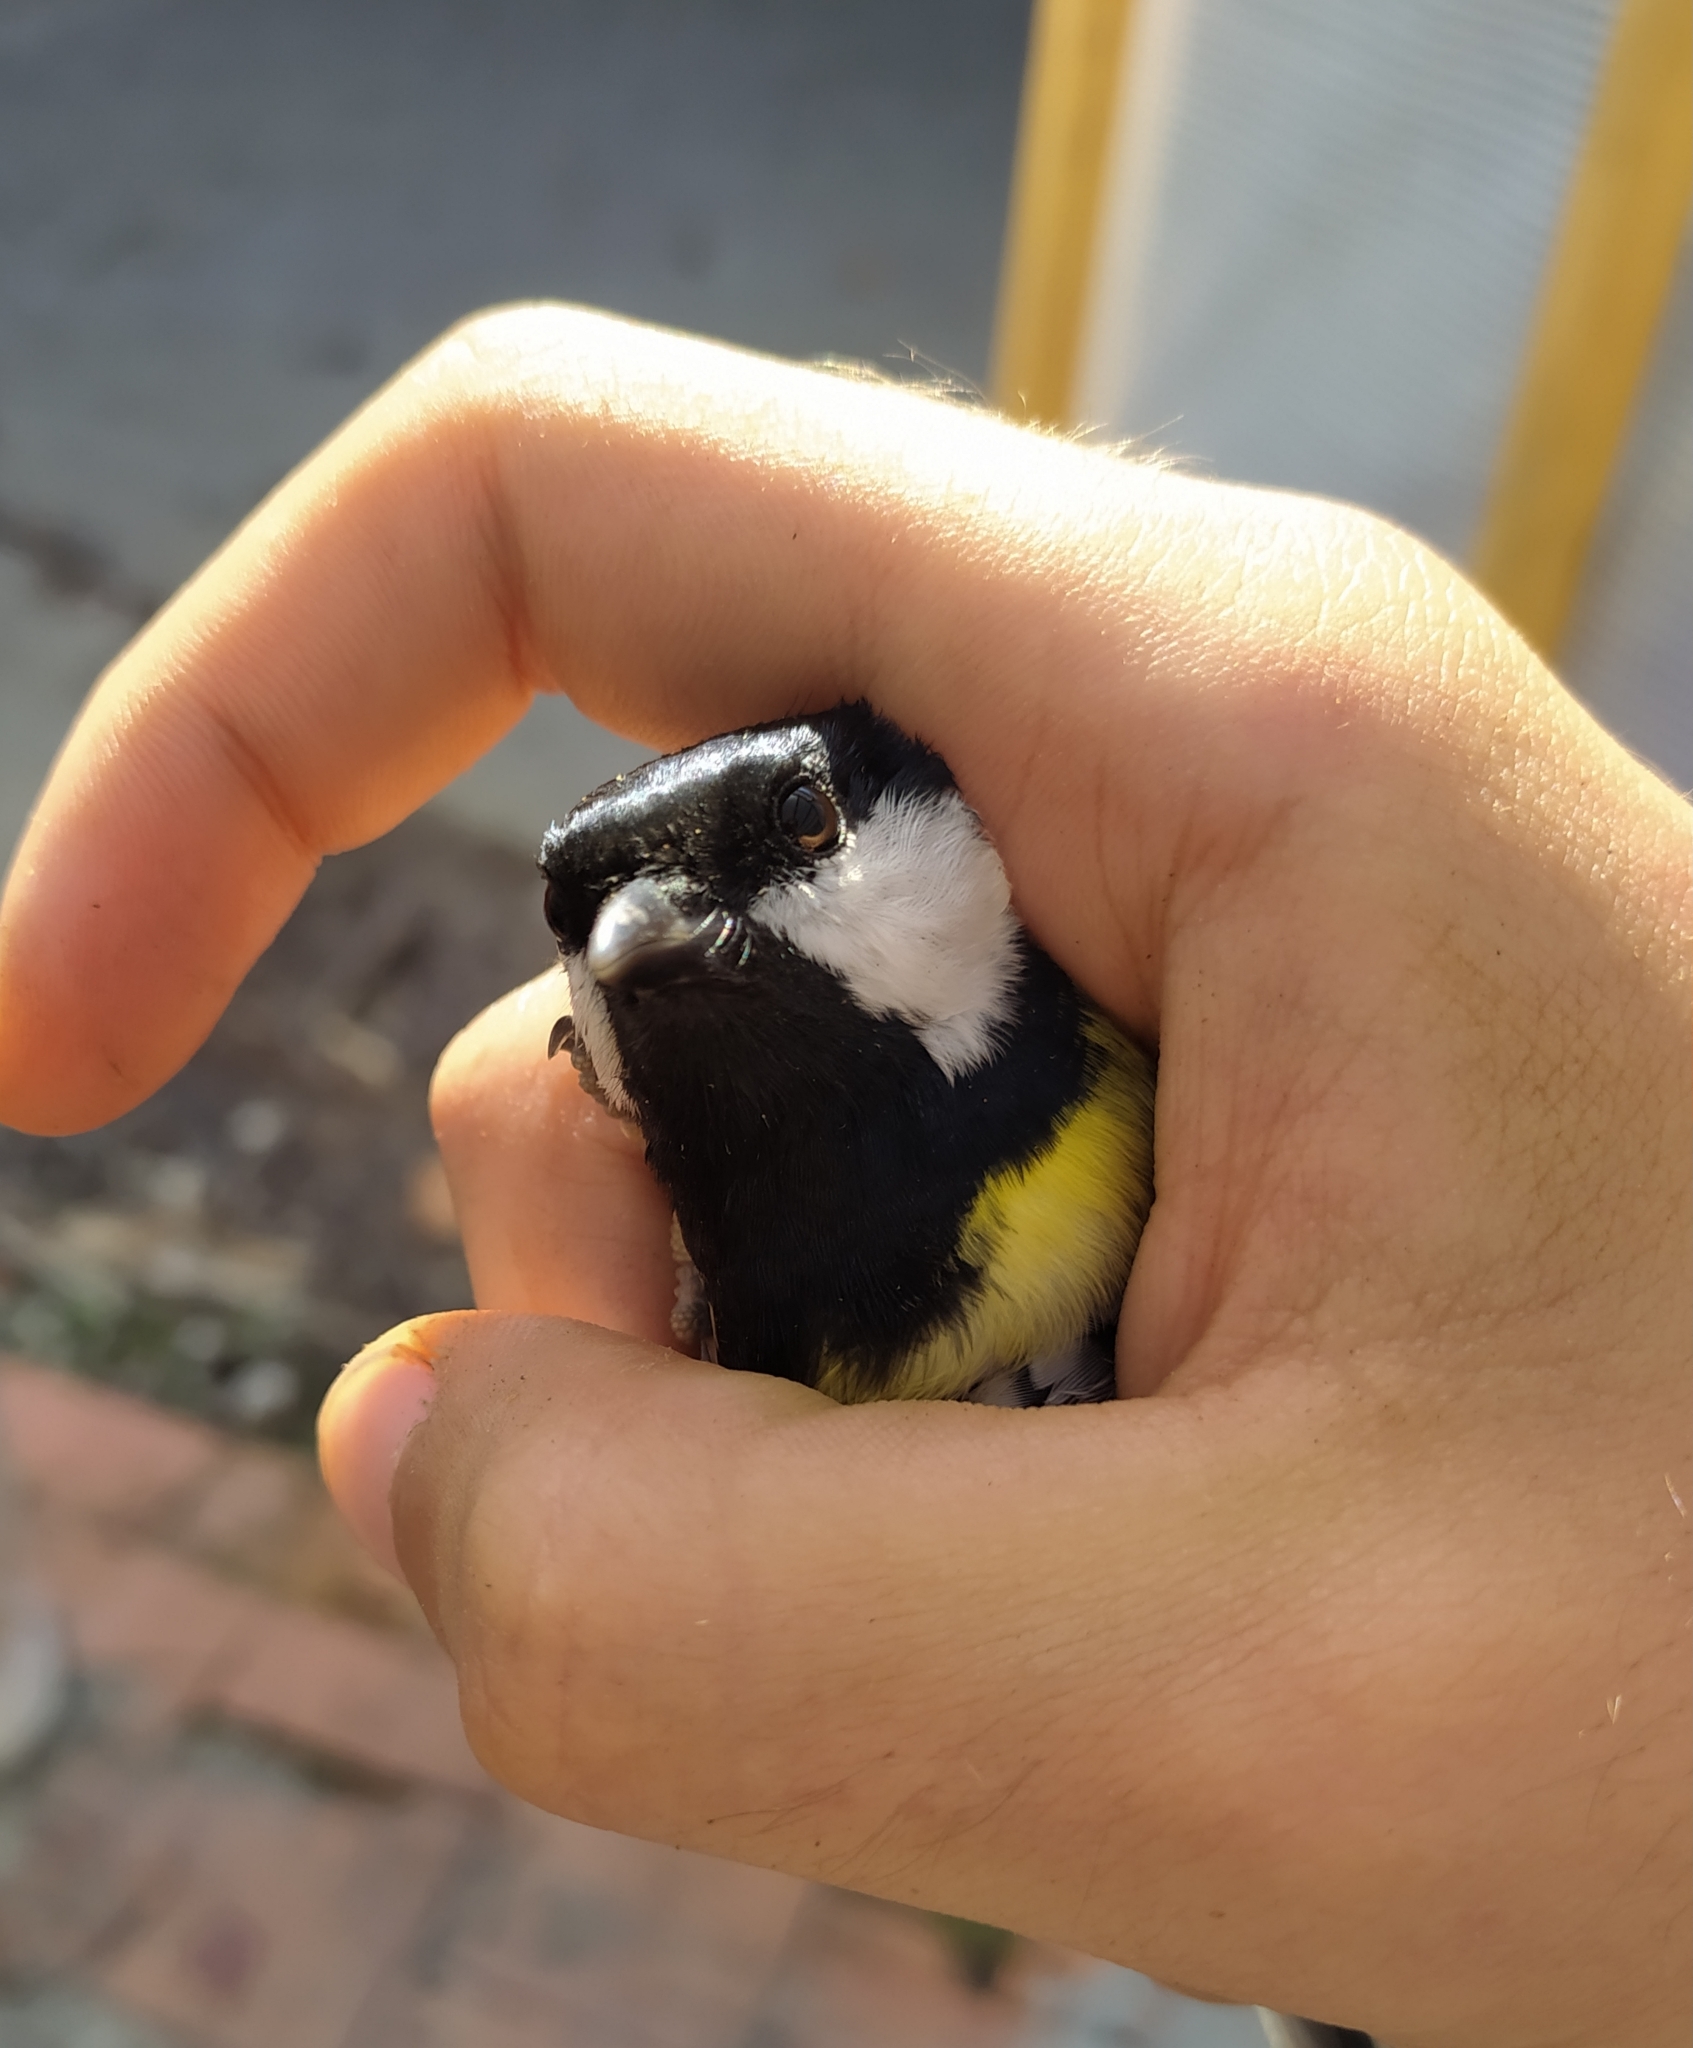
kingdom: Animalia
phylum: Chordata
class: Aves
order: Passeriformes
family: Paridae
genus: Parus
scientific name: Parus major
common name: Great tit
